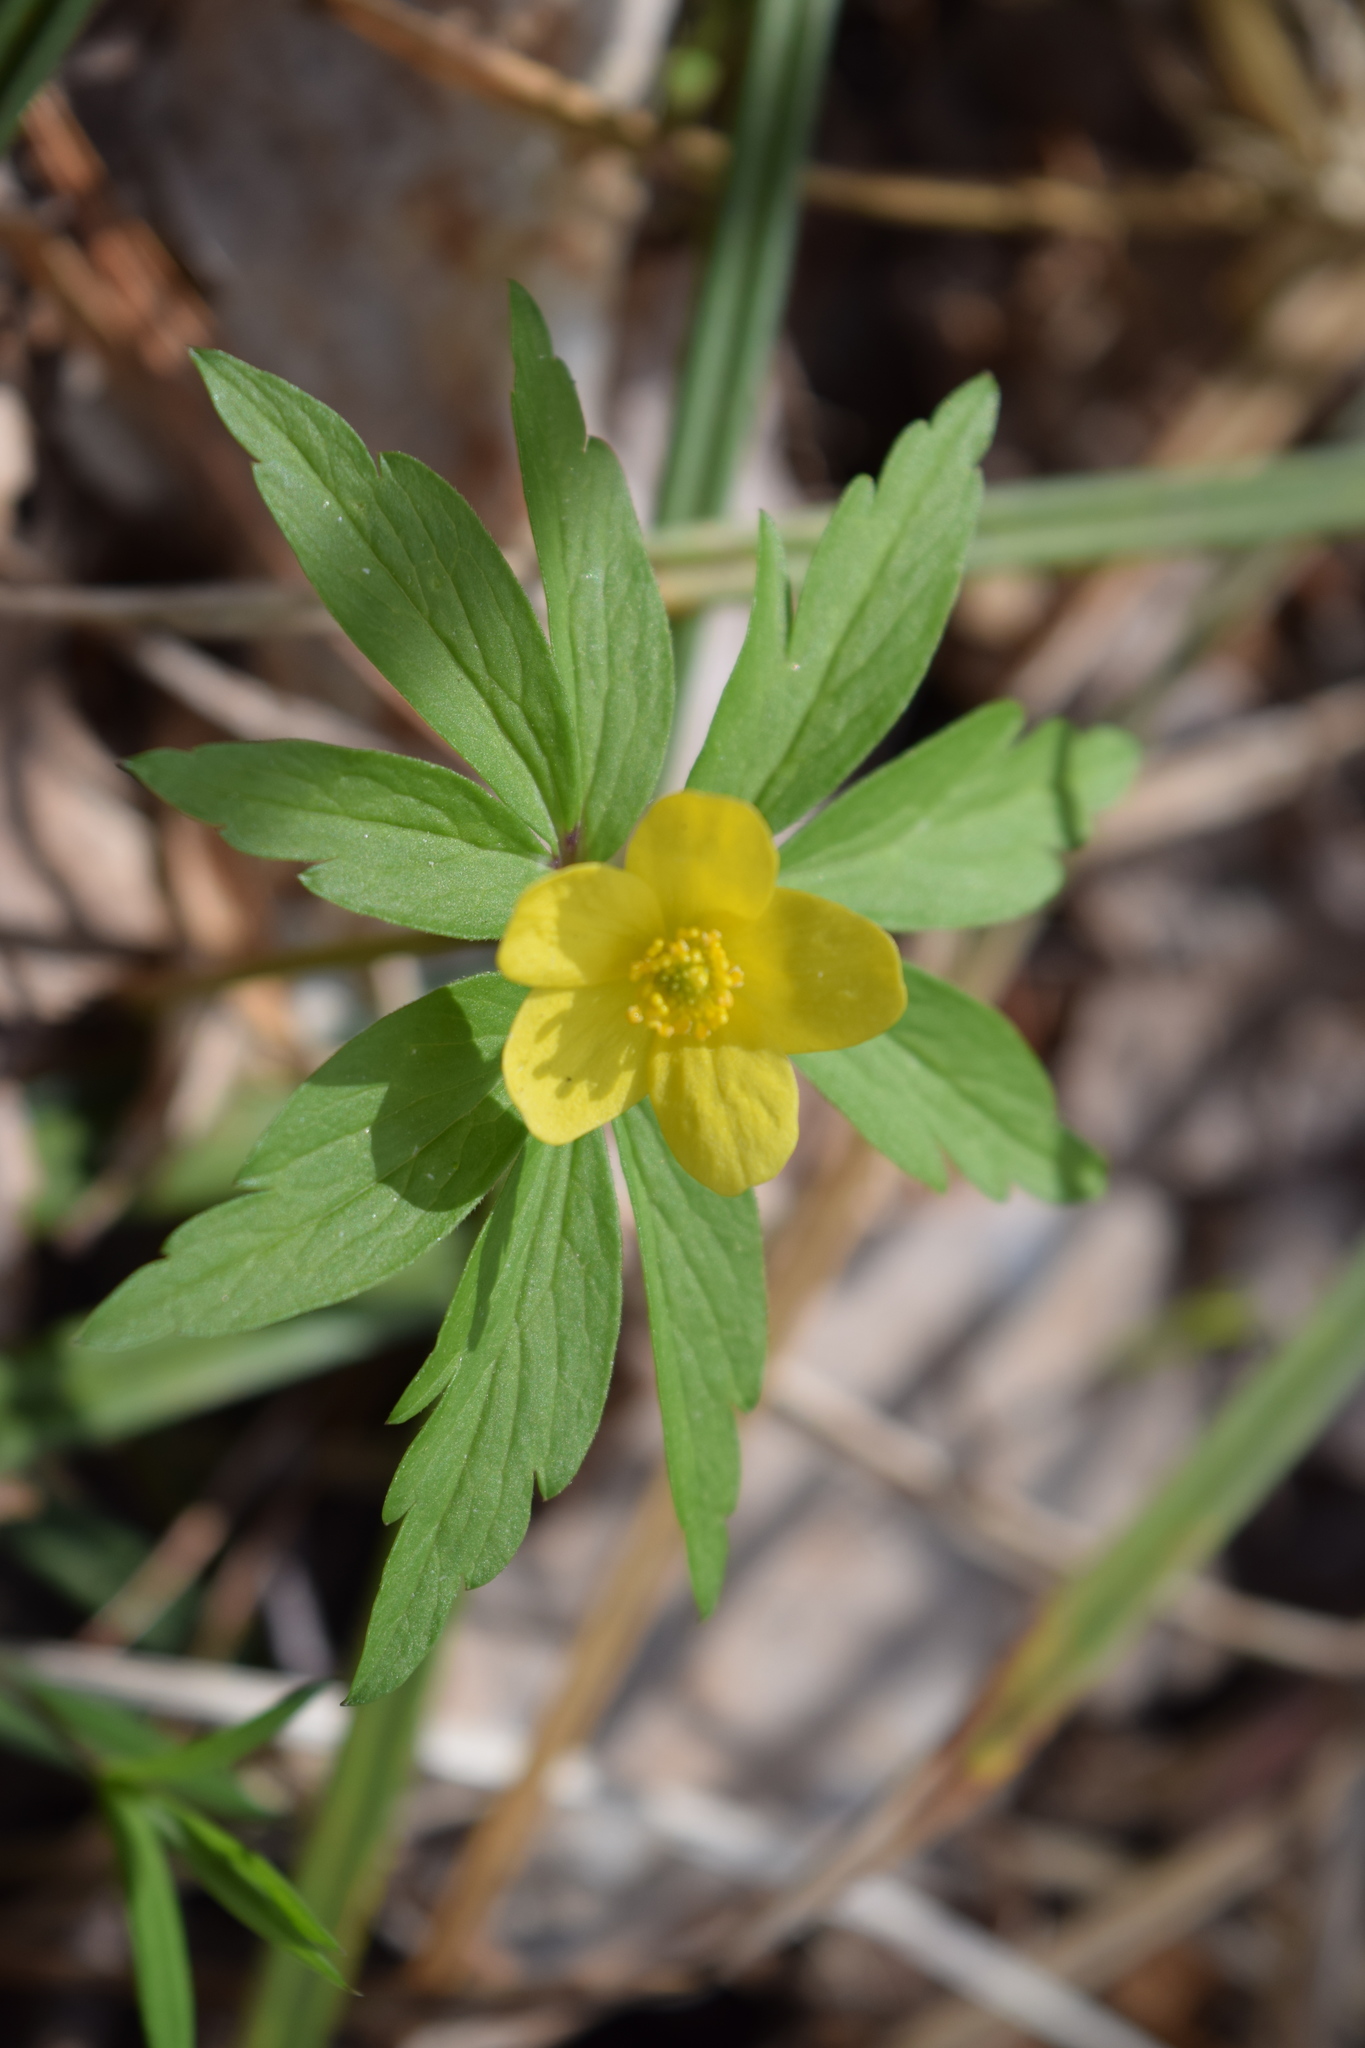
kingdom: Plantae
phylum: Tracheophyta
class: Magnoliopsida
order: Ranunculales
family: Ranunculaceae
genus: Anemone
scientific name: Anemone ranunculoides
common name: Yellow anemone
